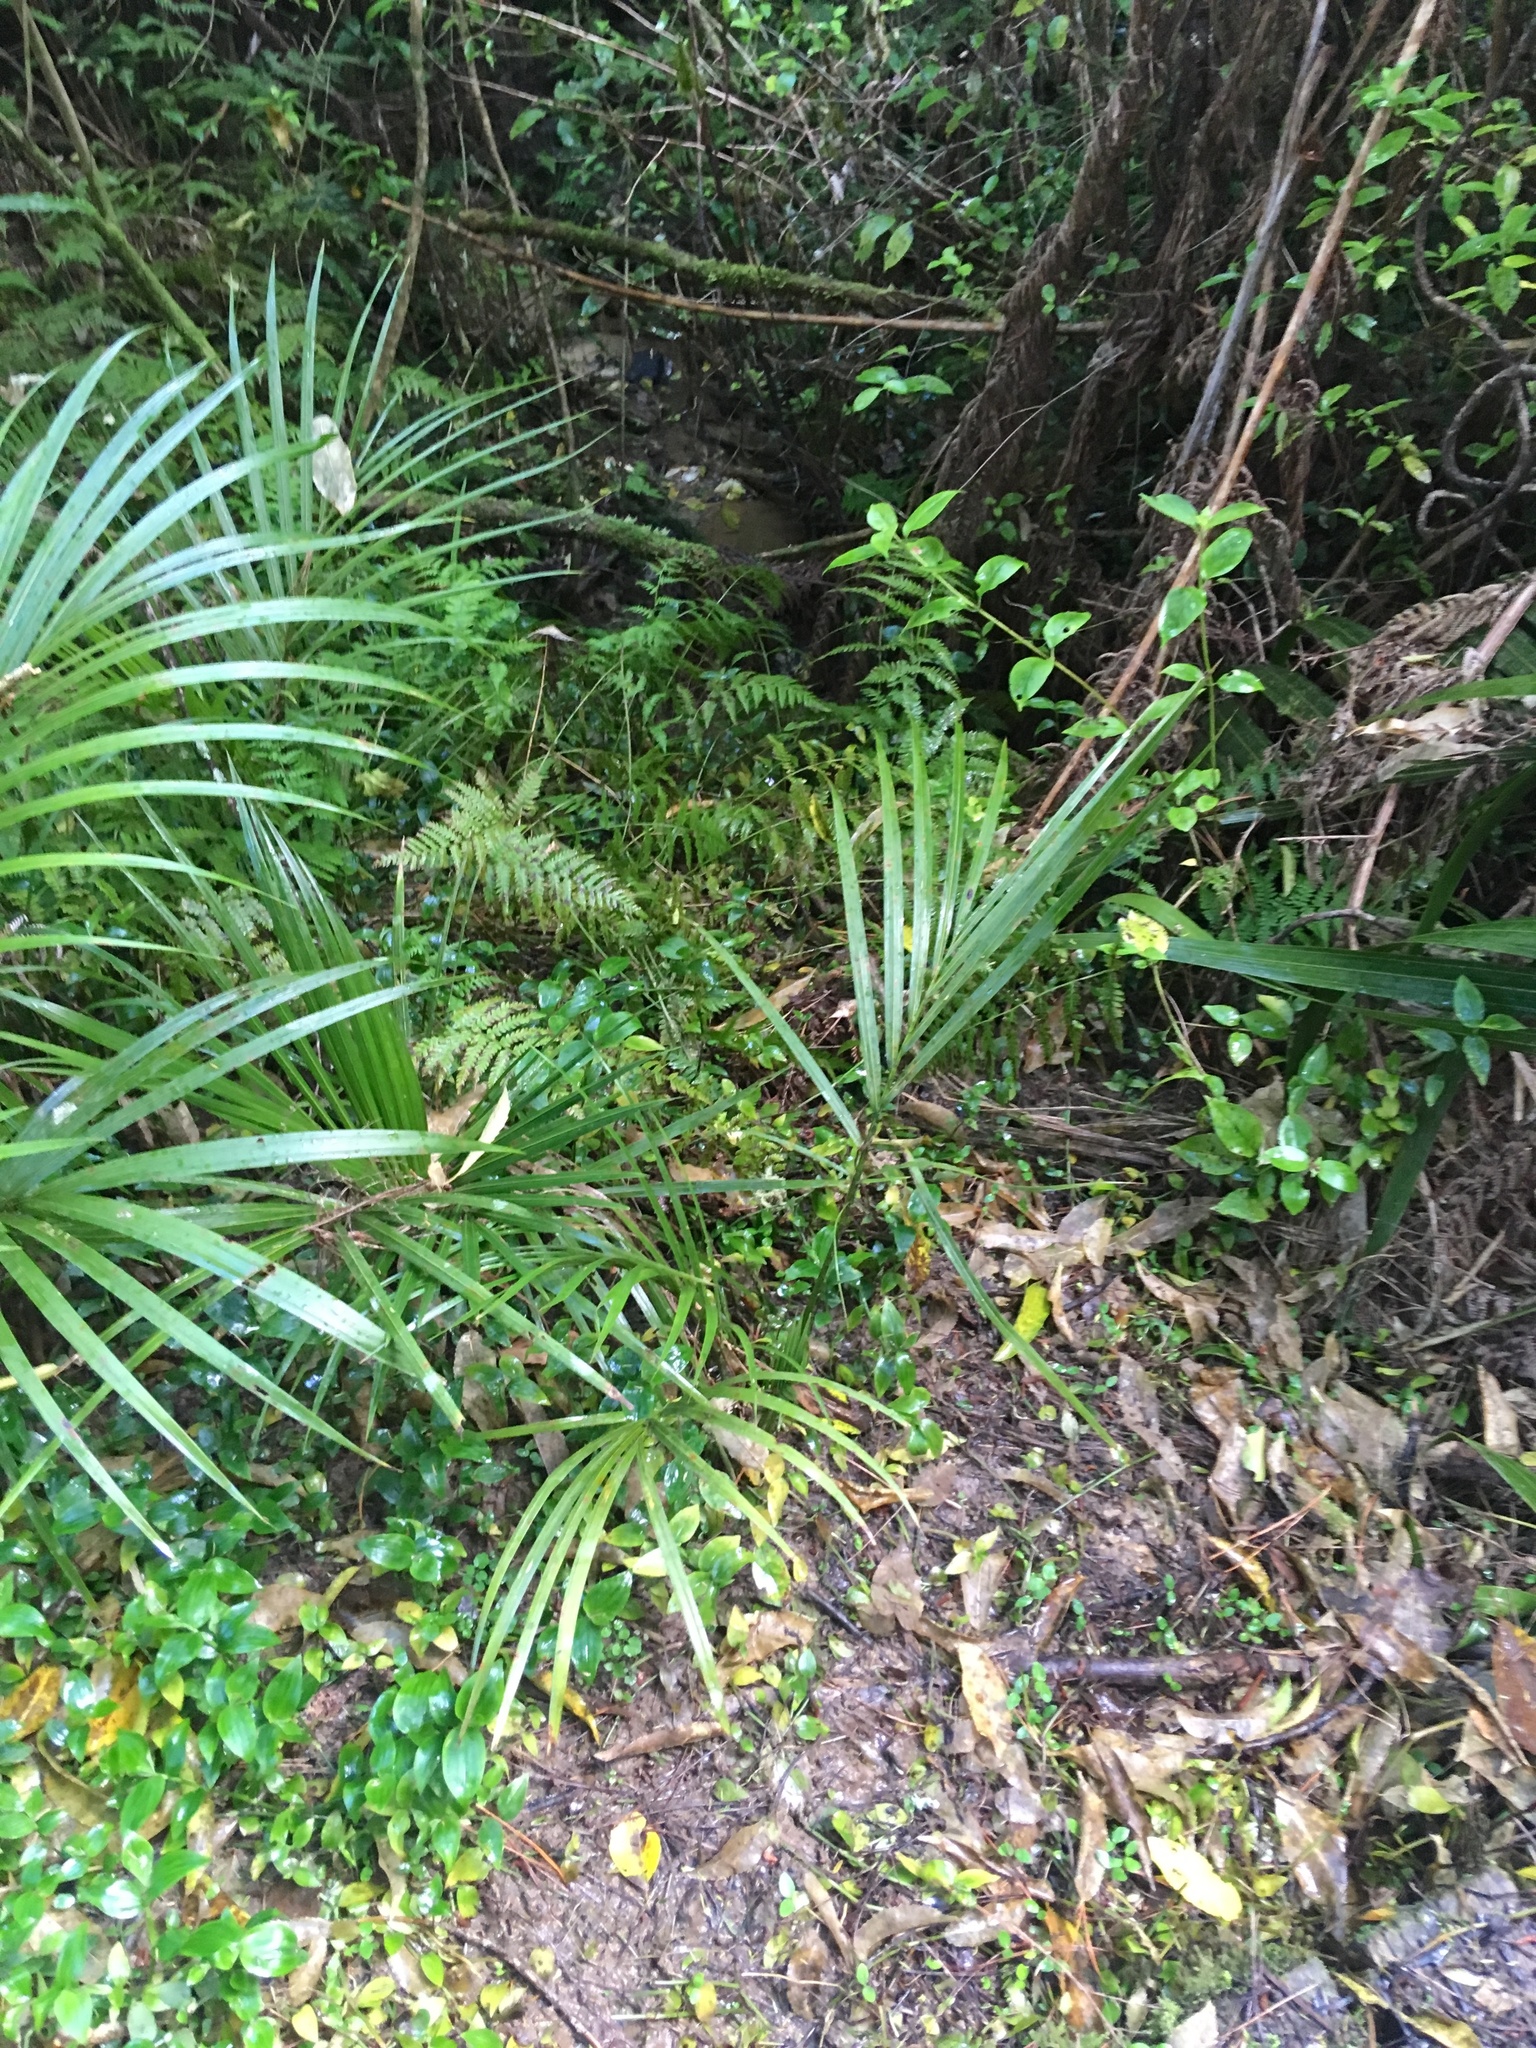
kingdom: Plantae
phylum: Tracheophyta
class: Liliopsida
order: Arecales
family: Arecaceae
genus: Rhopalostylis
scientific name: Rhopalostylis sapida
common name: Feather-duster palm
